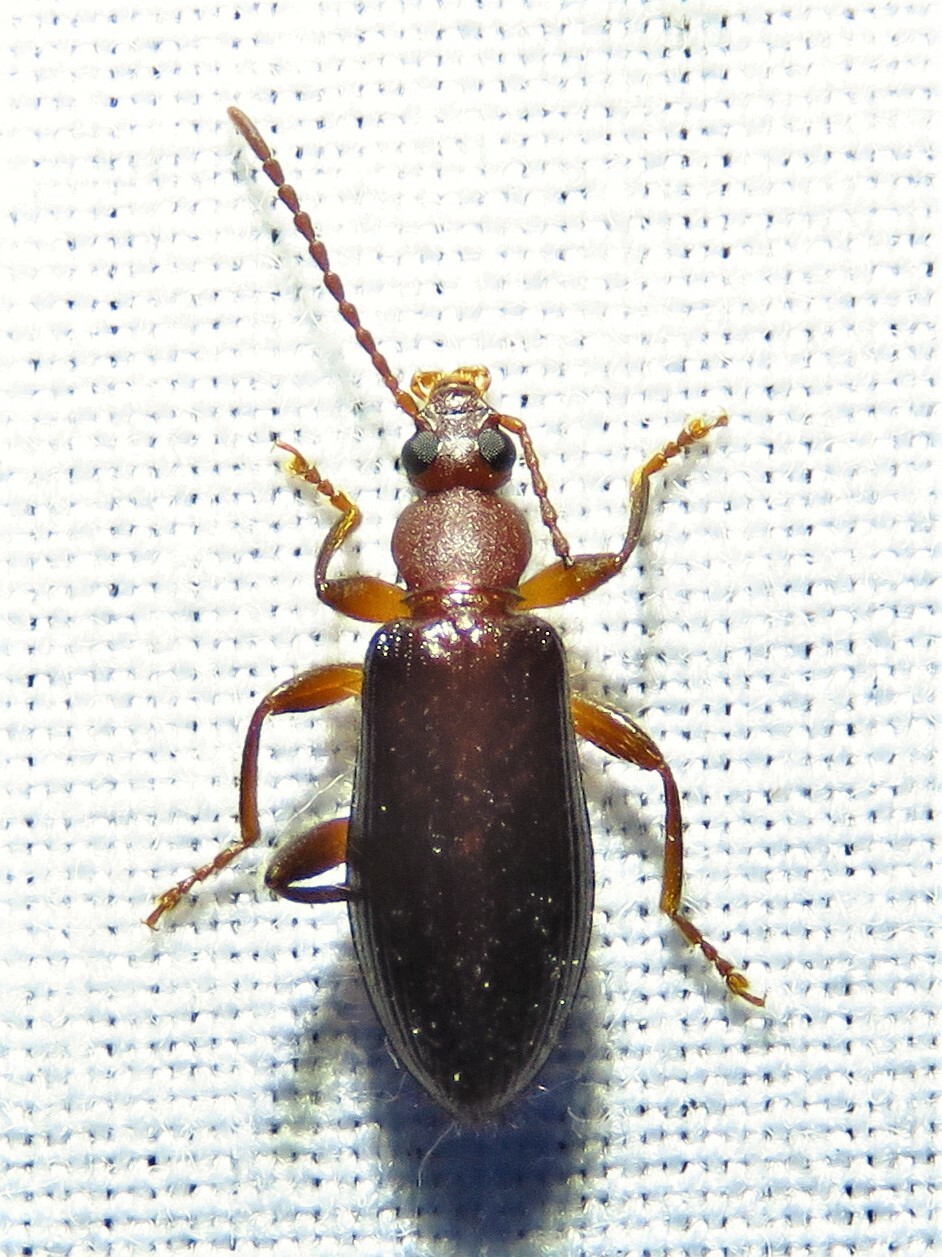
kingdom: Animalia
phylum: Arthropoda
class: Insecta
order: Coleoptera
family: Tenebrionidae
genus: Statira
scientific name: Statira hirsuta
